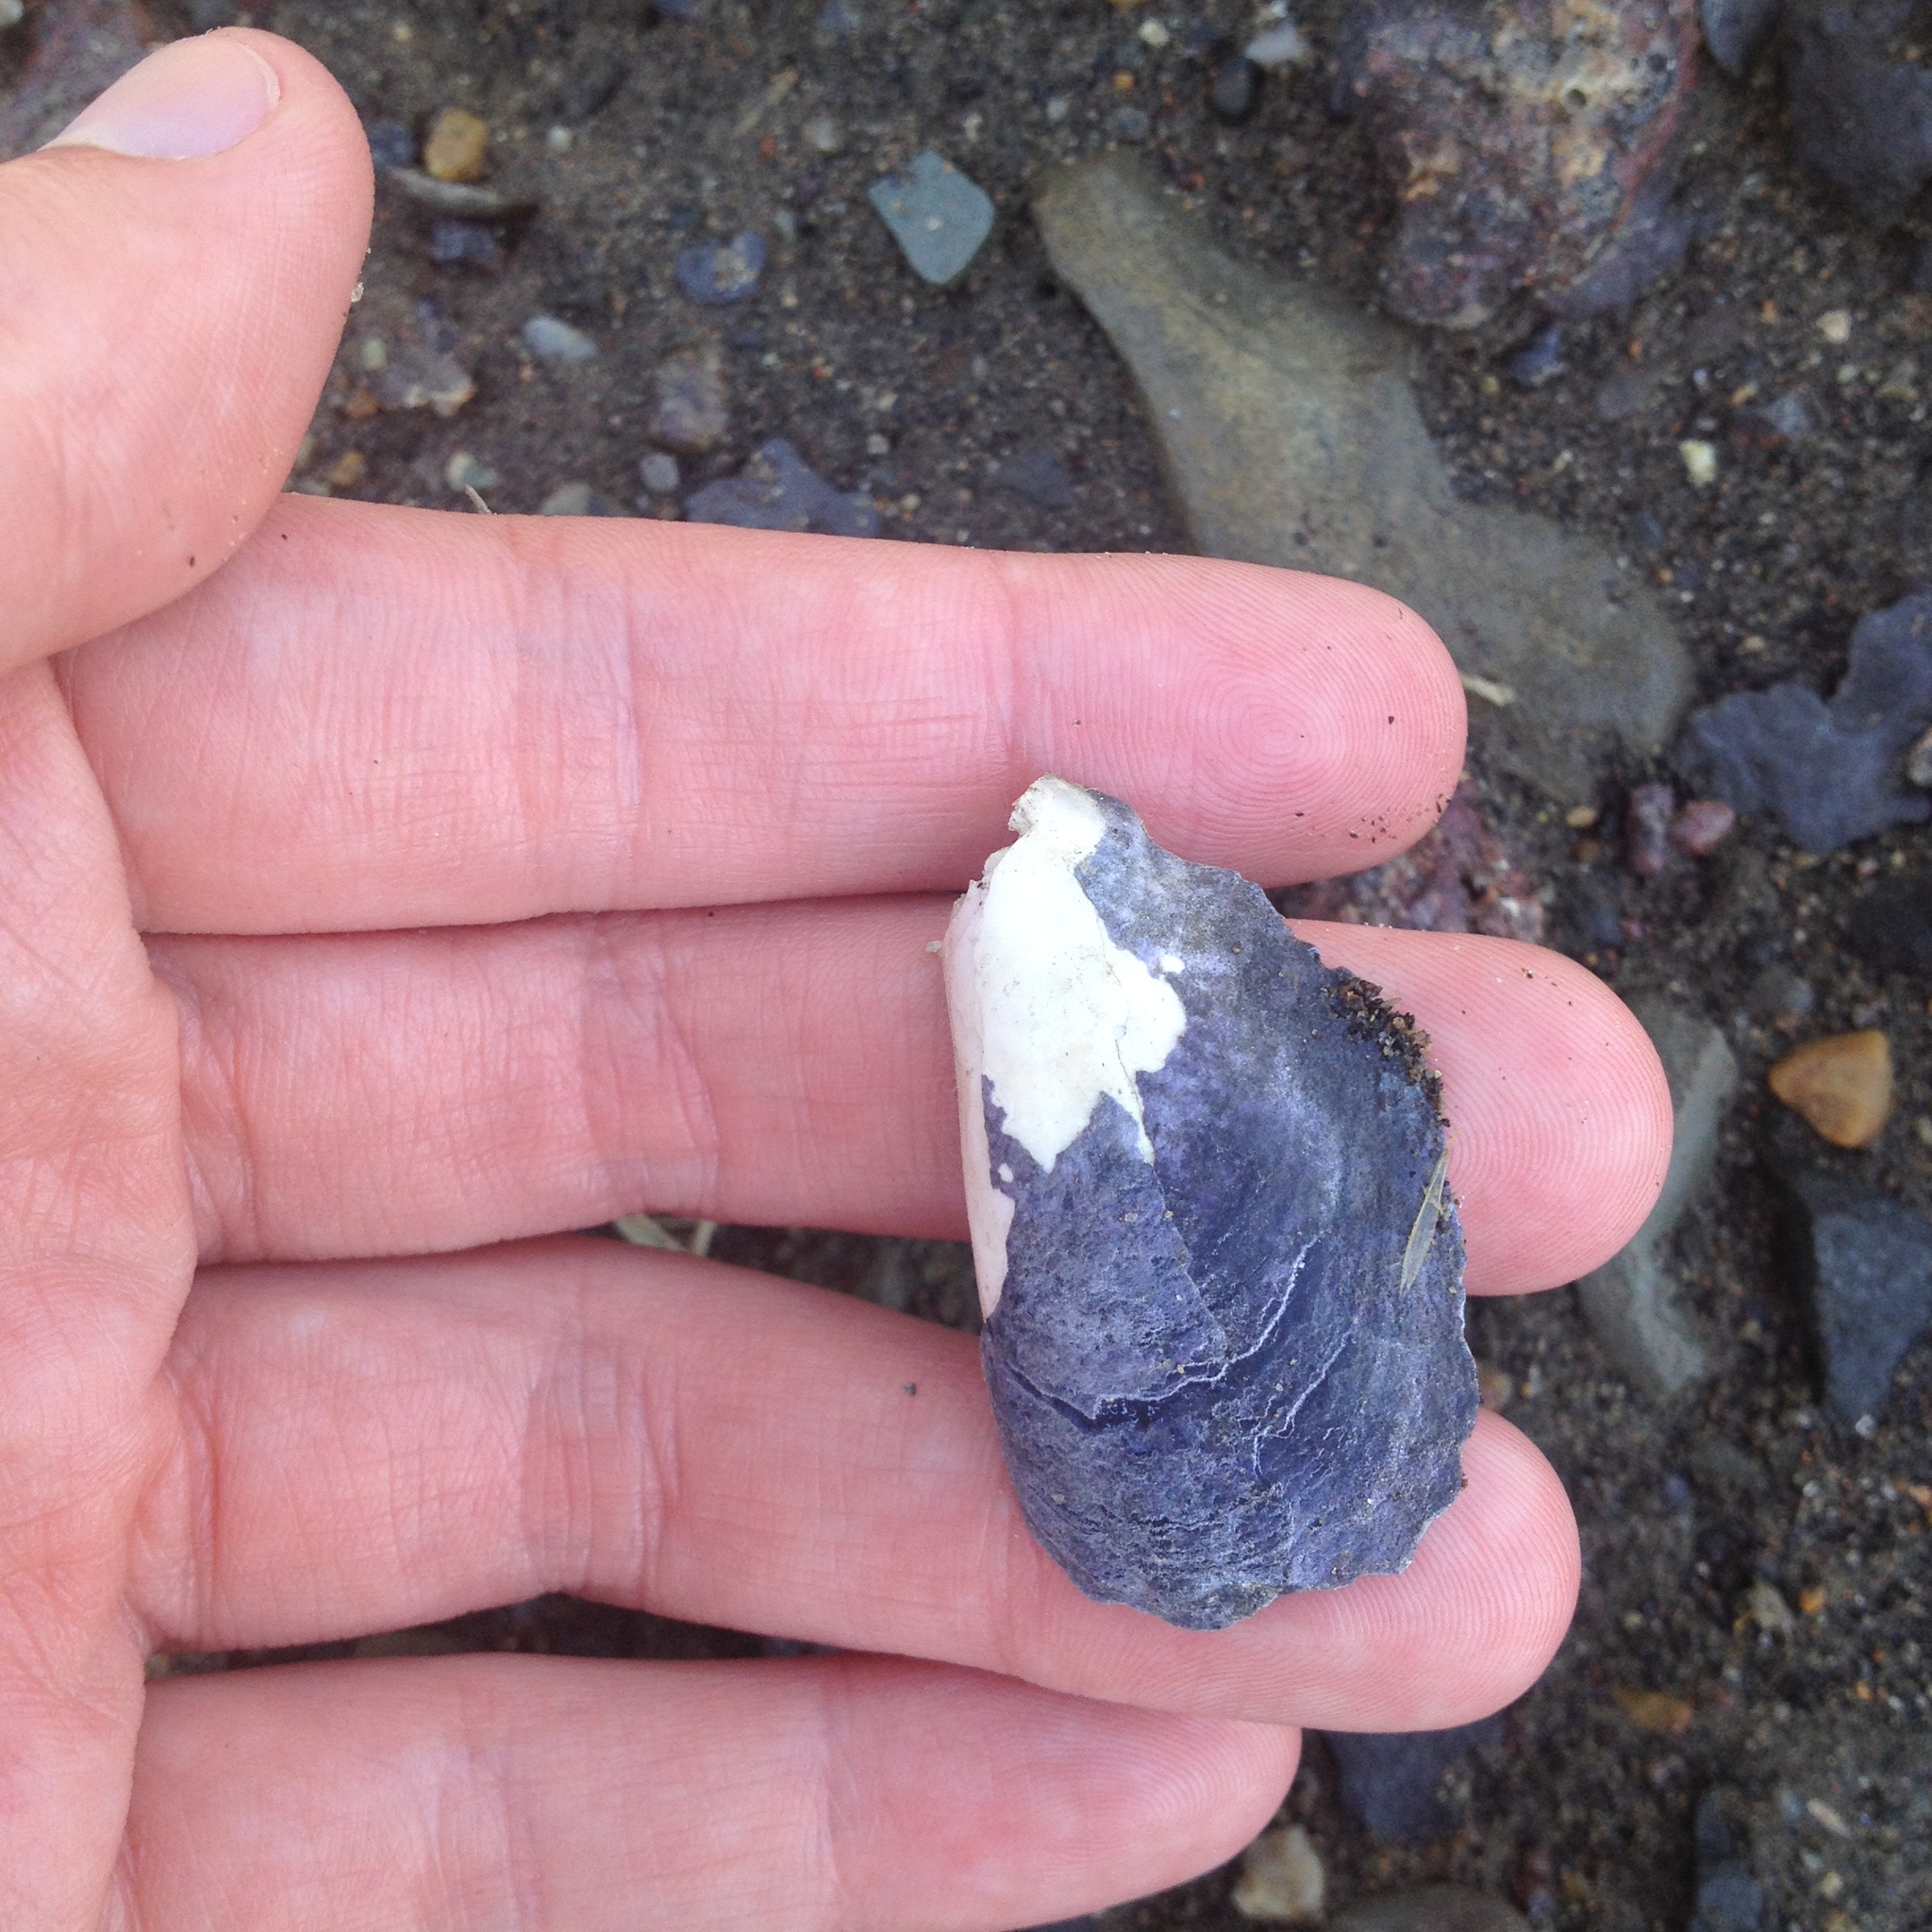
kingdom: Animalia
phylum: Mollusca
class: Bivalvia
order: Mytilida
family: Mytilidae
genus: Mytilus
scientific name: Mytilus edulis
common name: Blue mussel
